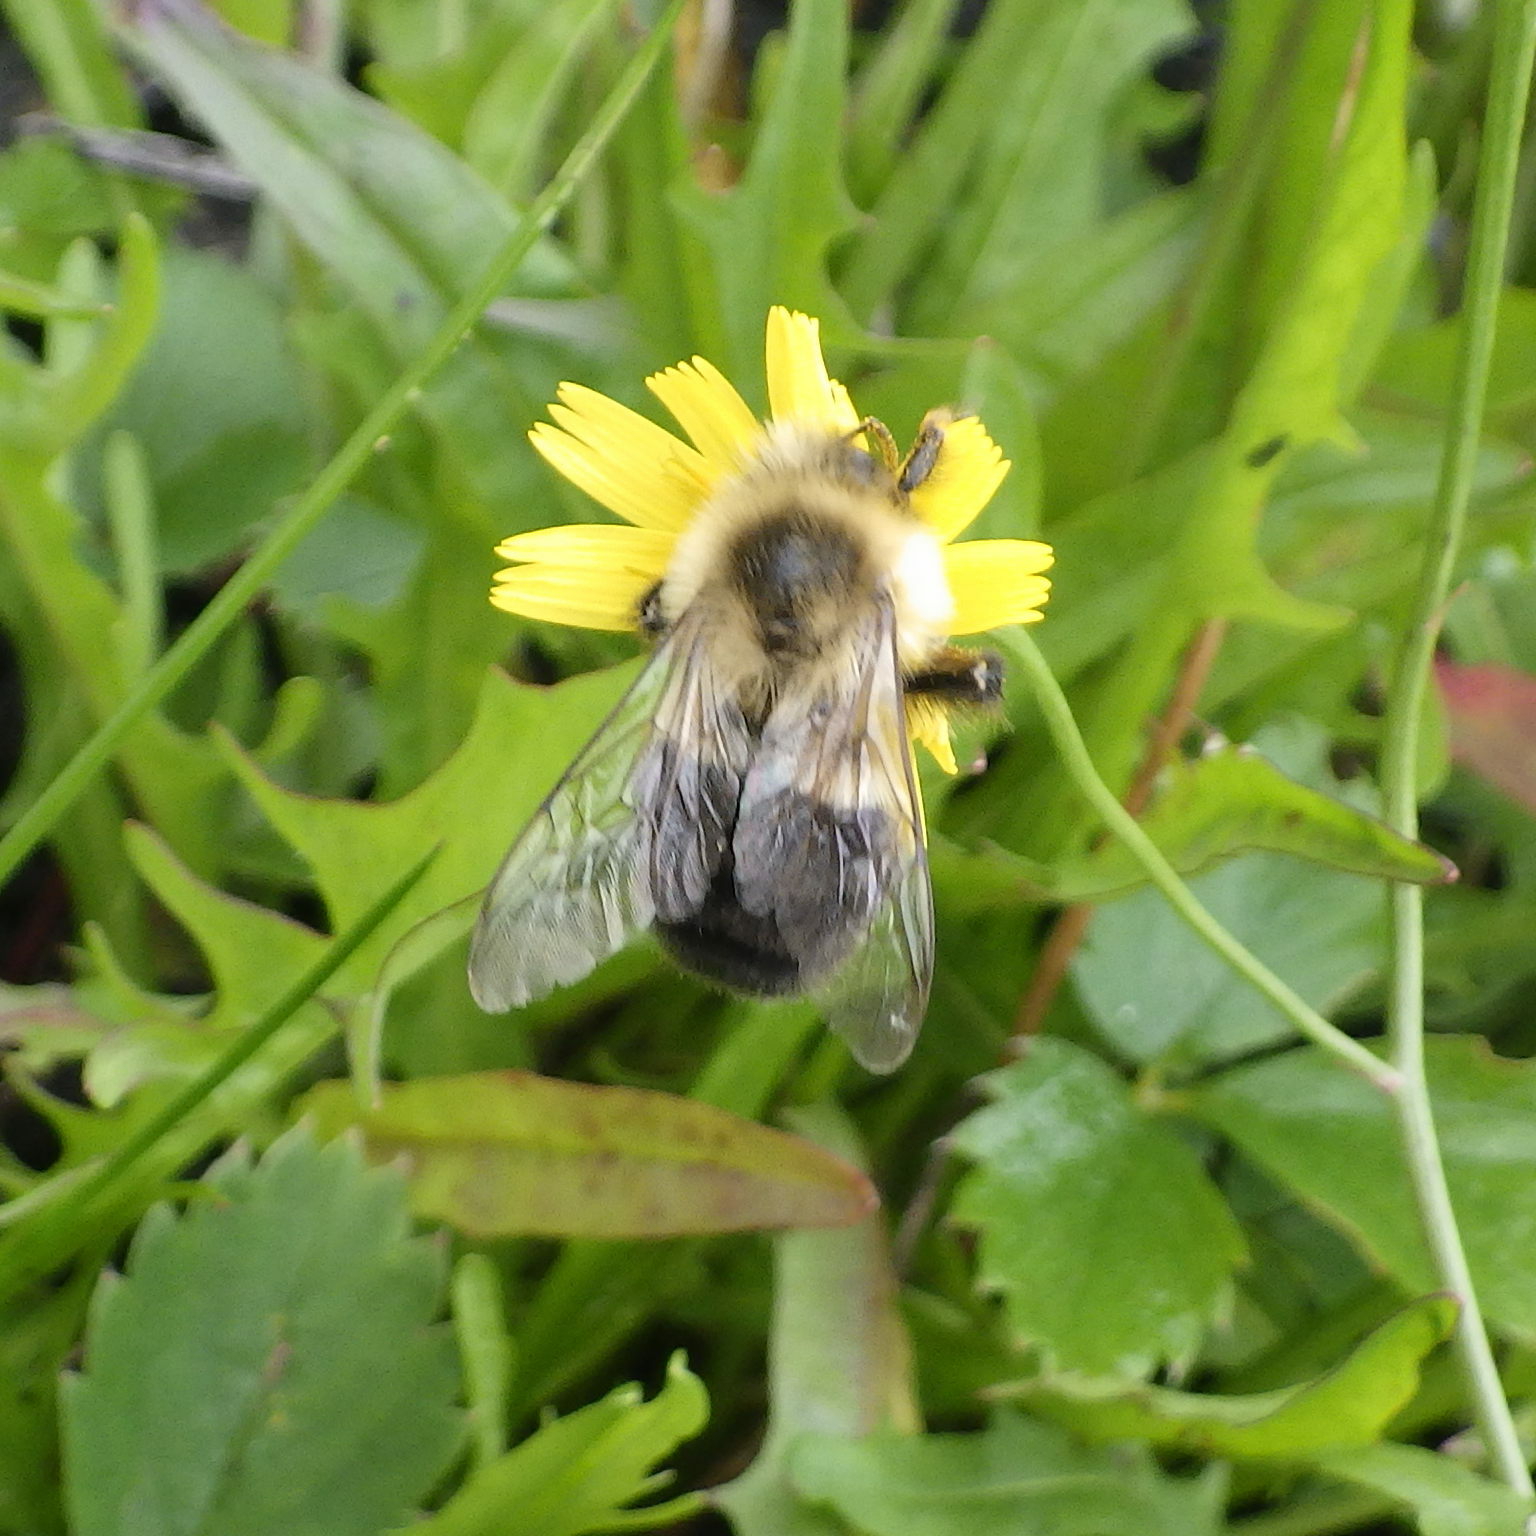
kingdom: Animalia
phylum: Arthropoda
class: Insecta
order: Hymenoptera
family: Apidae
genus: Bombus
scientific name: Bombus impatiens
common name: Common eastern bumble bee
